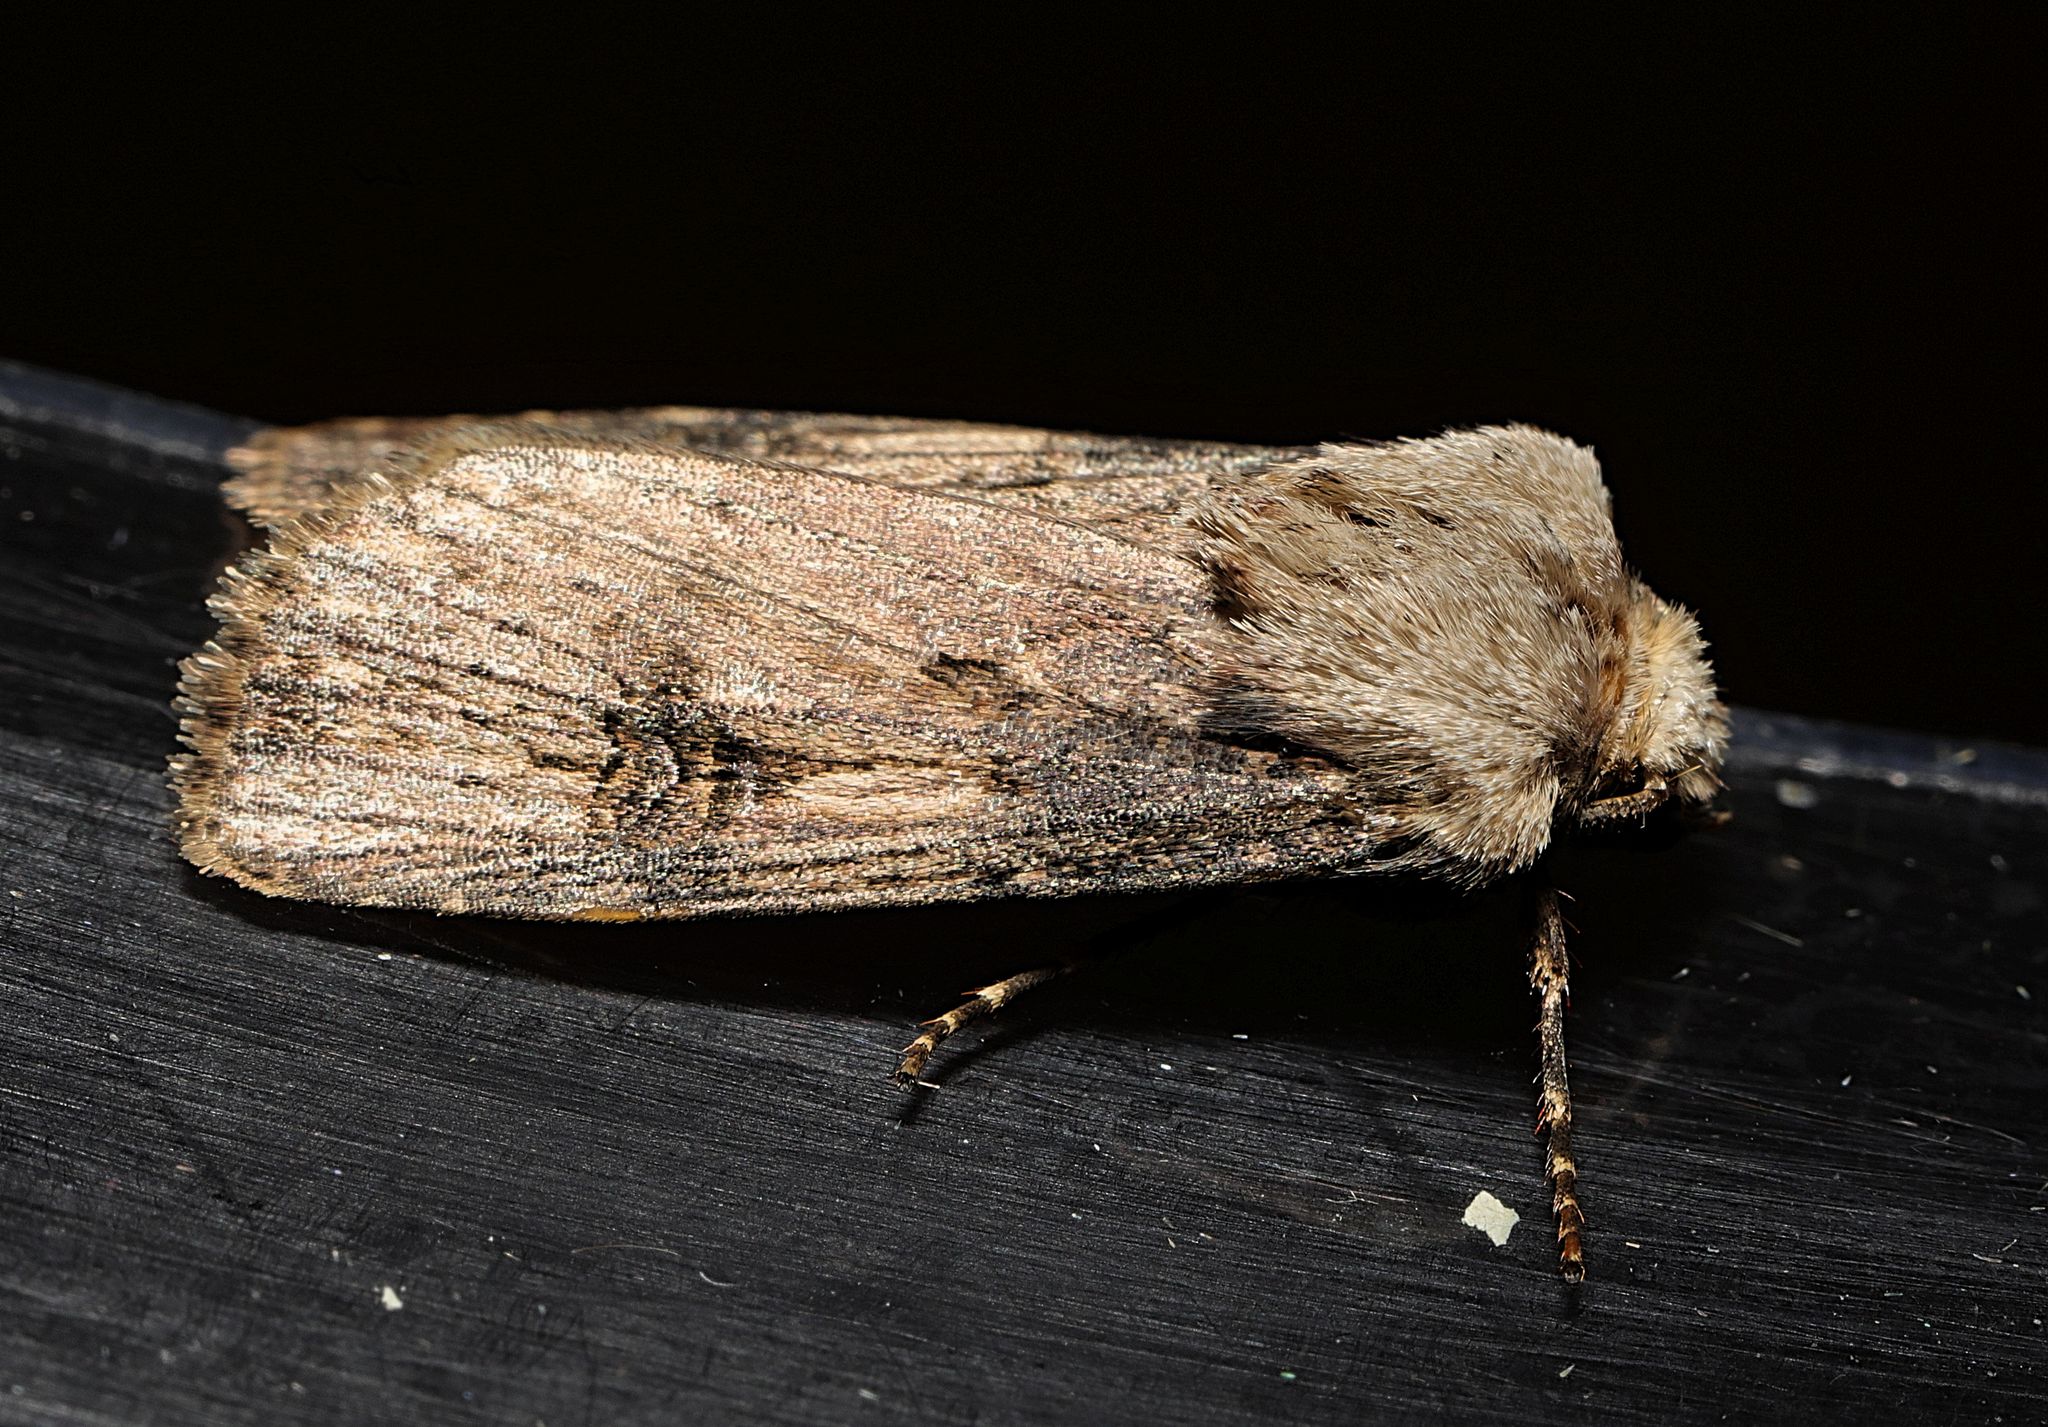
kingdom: Animalia
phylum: Arthropoda
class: Insecta
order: Lepidoptera
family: Noctuidae
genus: Agrotis
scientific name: Agrotis puta
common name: Shuttle-shaped dart
